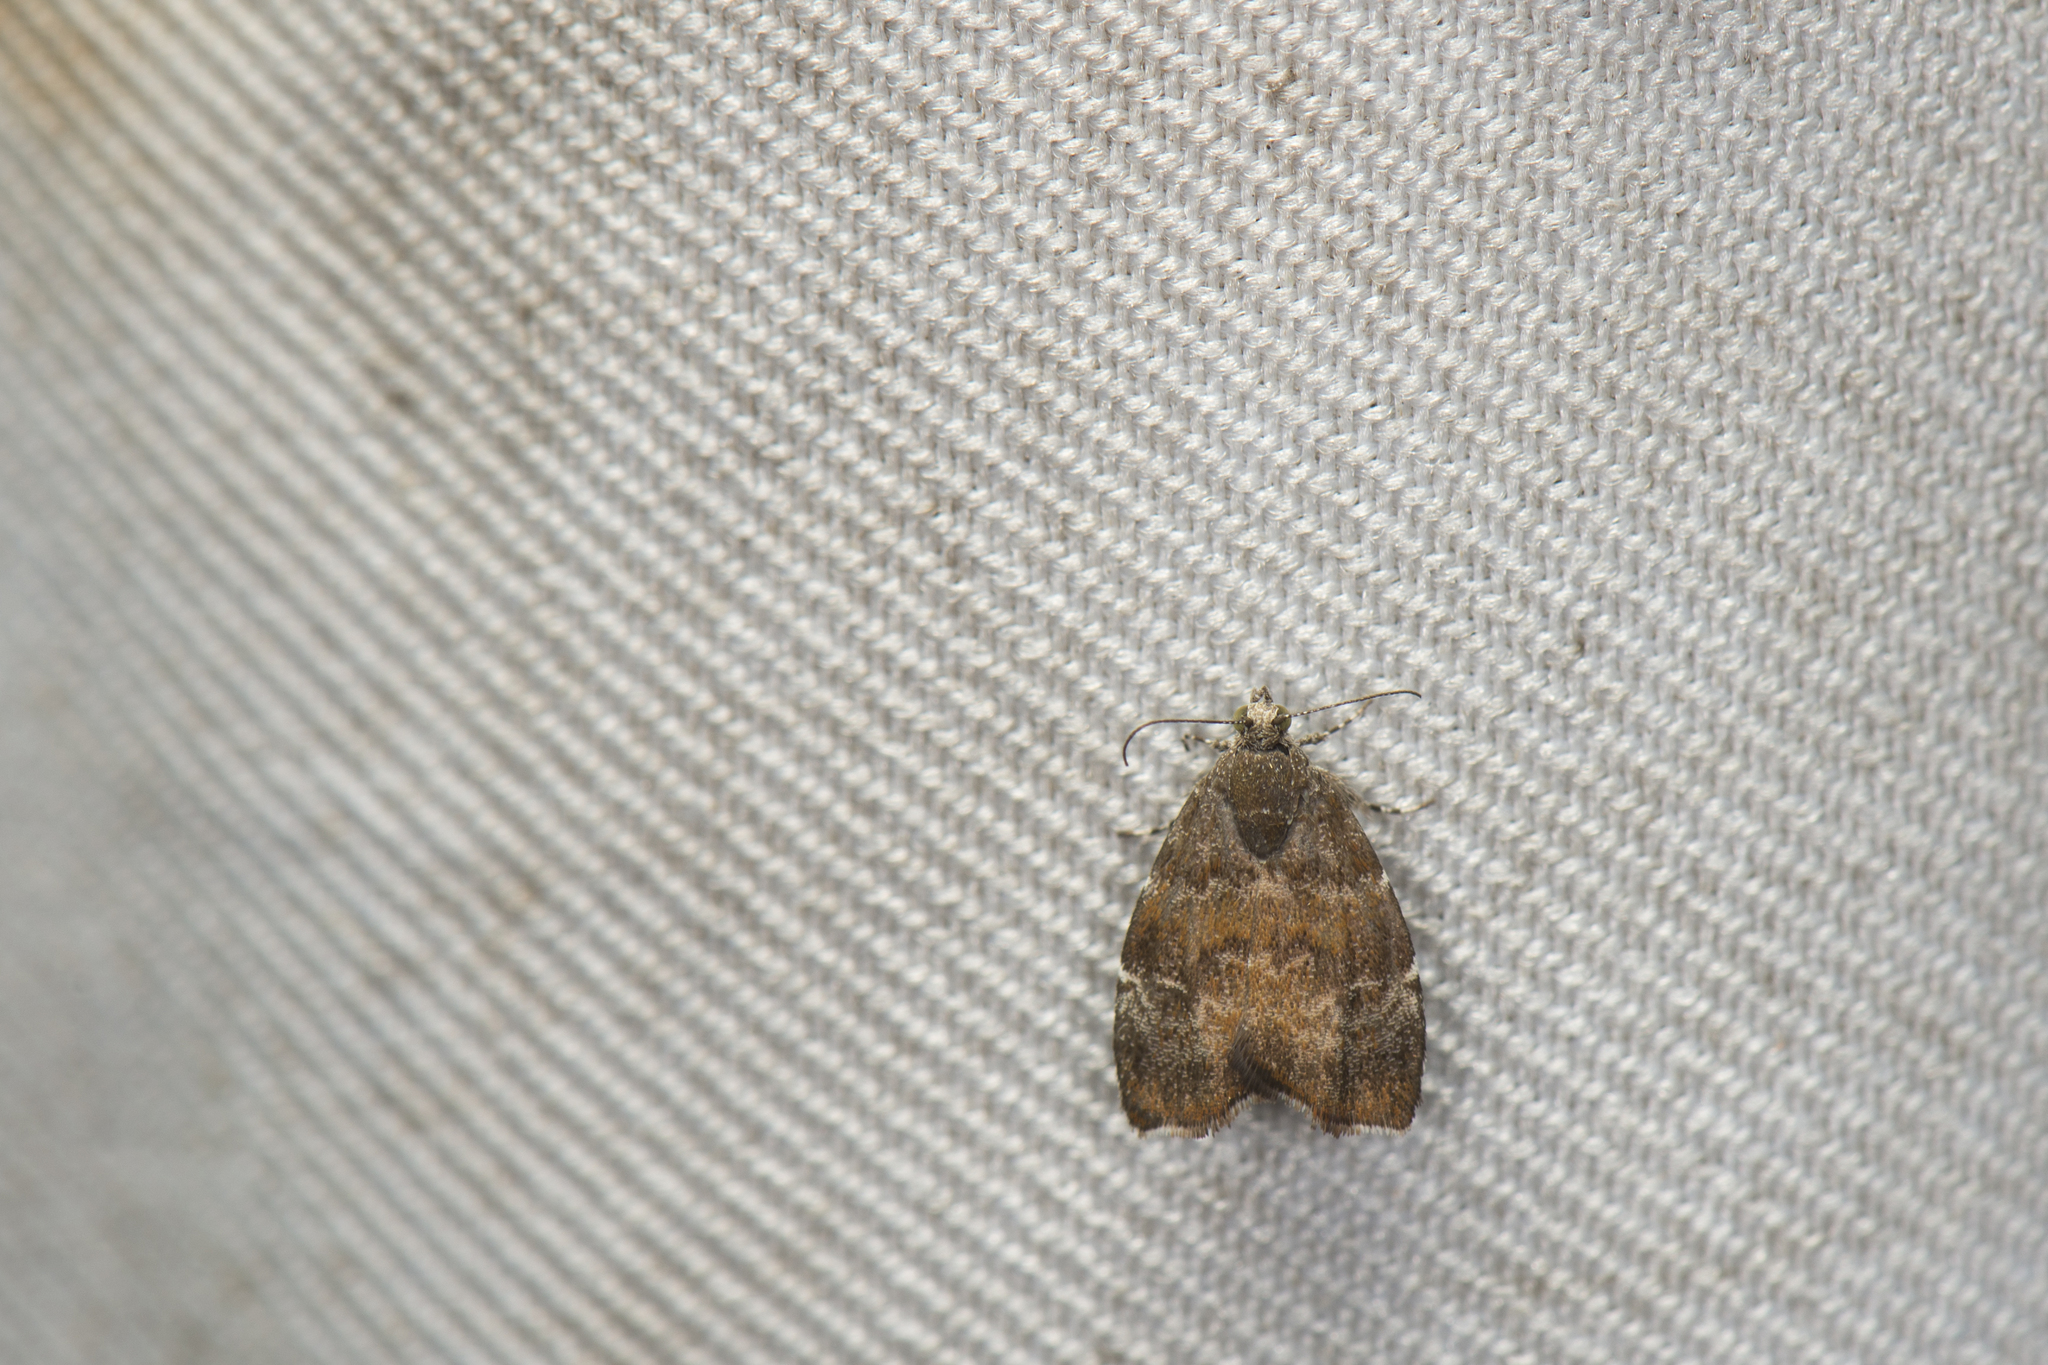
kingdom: Animalia
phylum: Arthropoda
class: Insecta
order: Lepidoptera
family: Choreutidae
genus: Anthophila
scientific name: Anthophila yakushimensis
